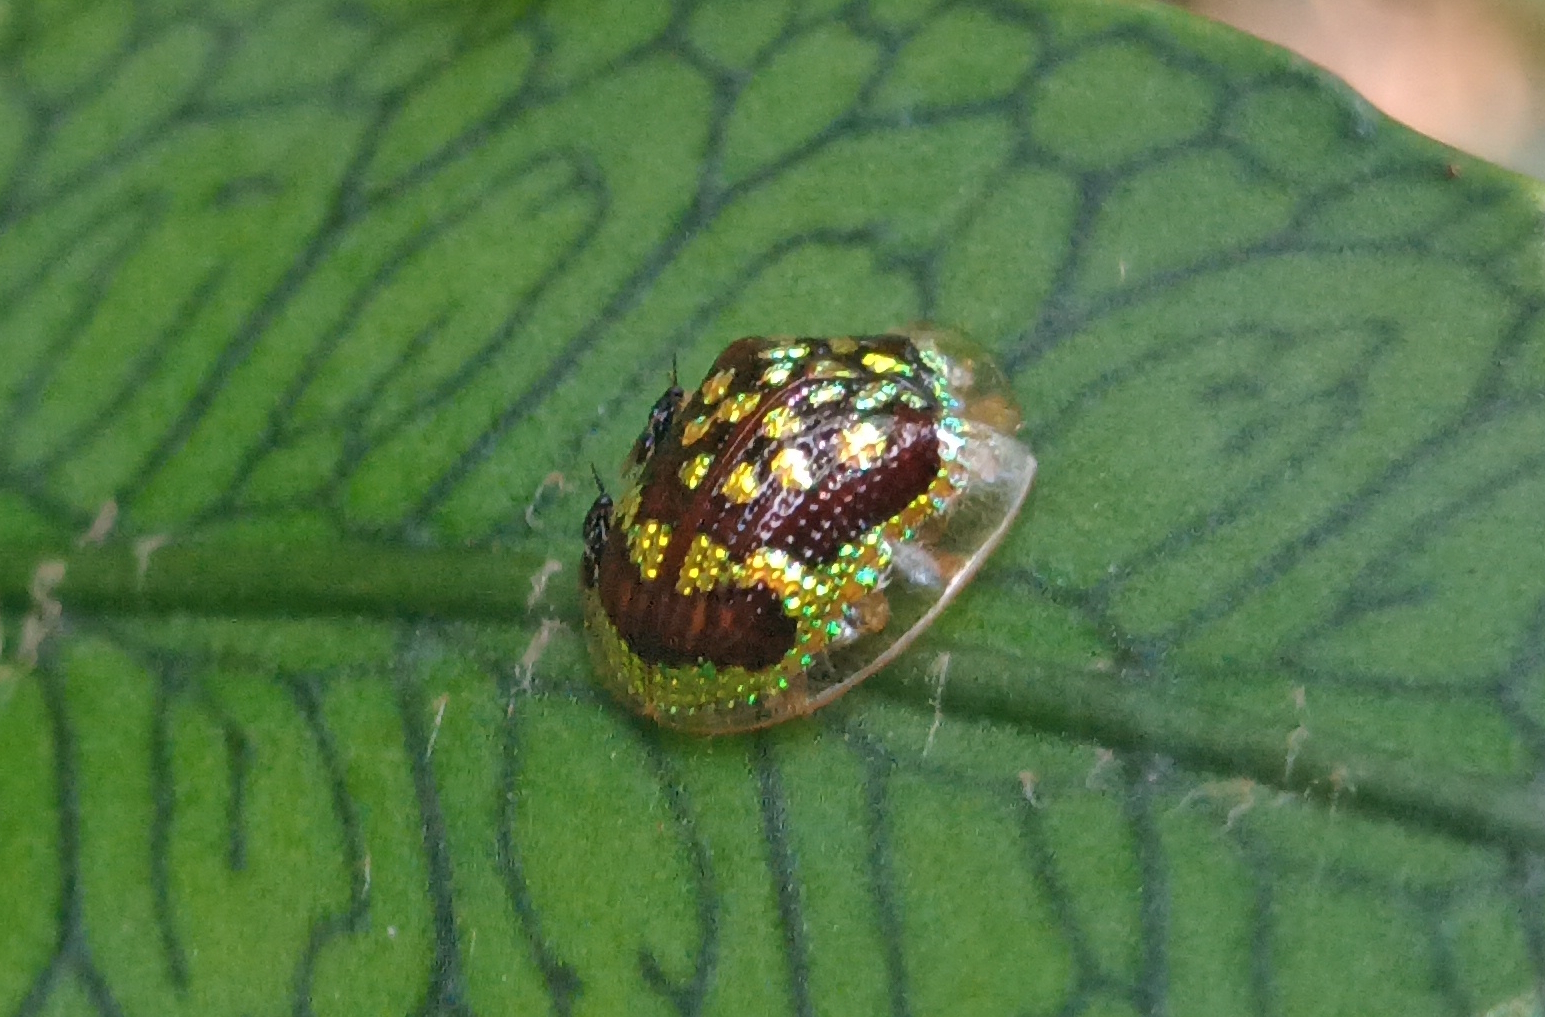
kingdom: Animalia
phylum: Arthropoda
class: Insecta
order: Coleoptera
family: Chrysomelidae
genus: Microctenochira
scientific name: Microctenochira brasiliensis
